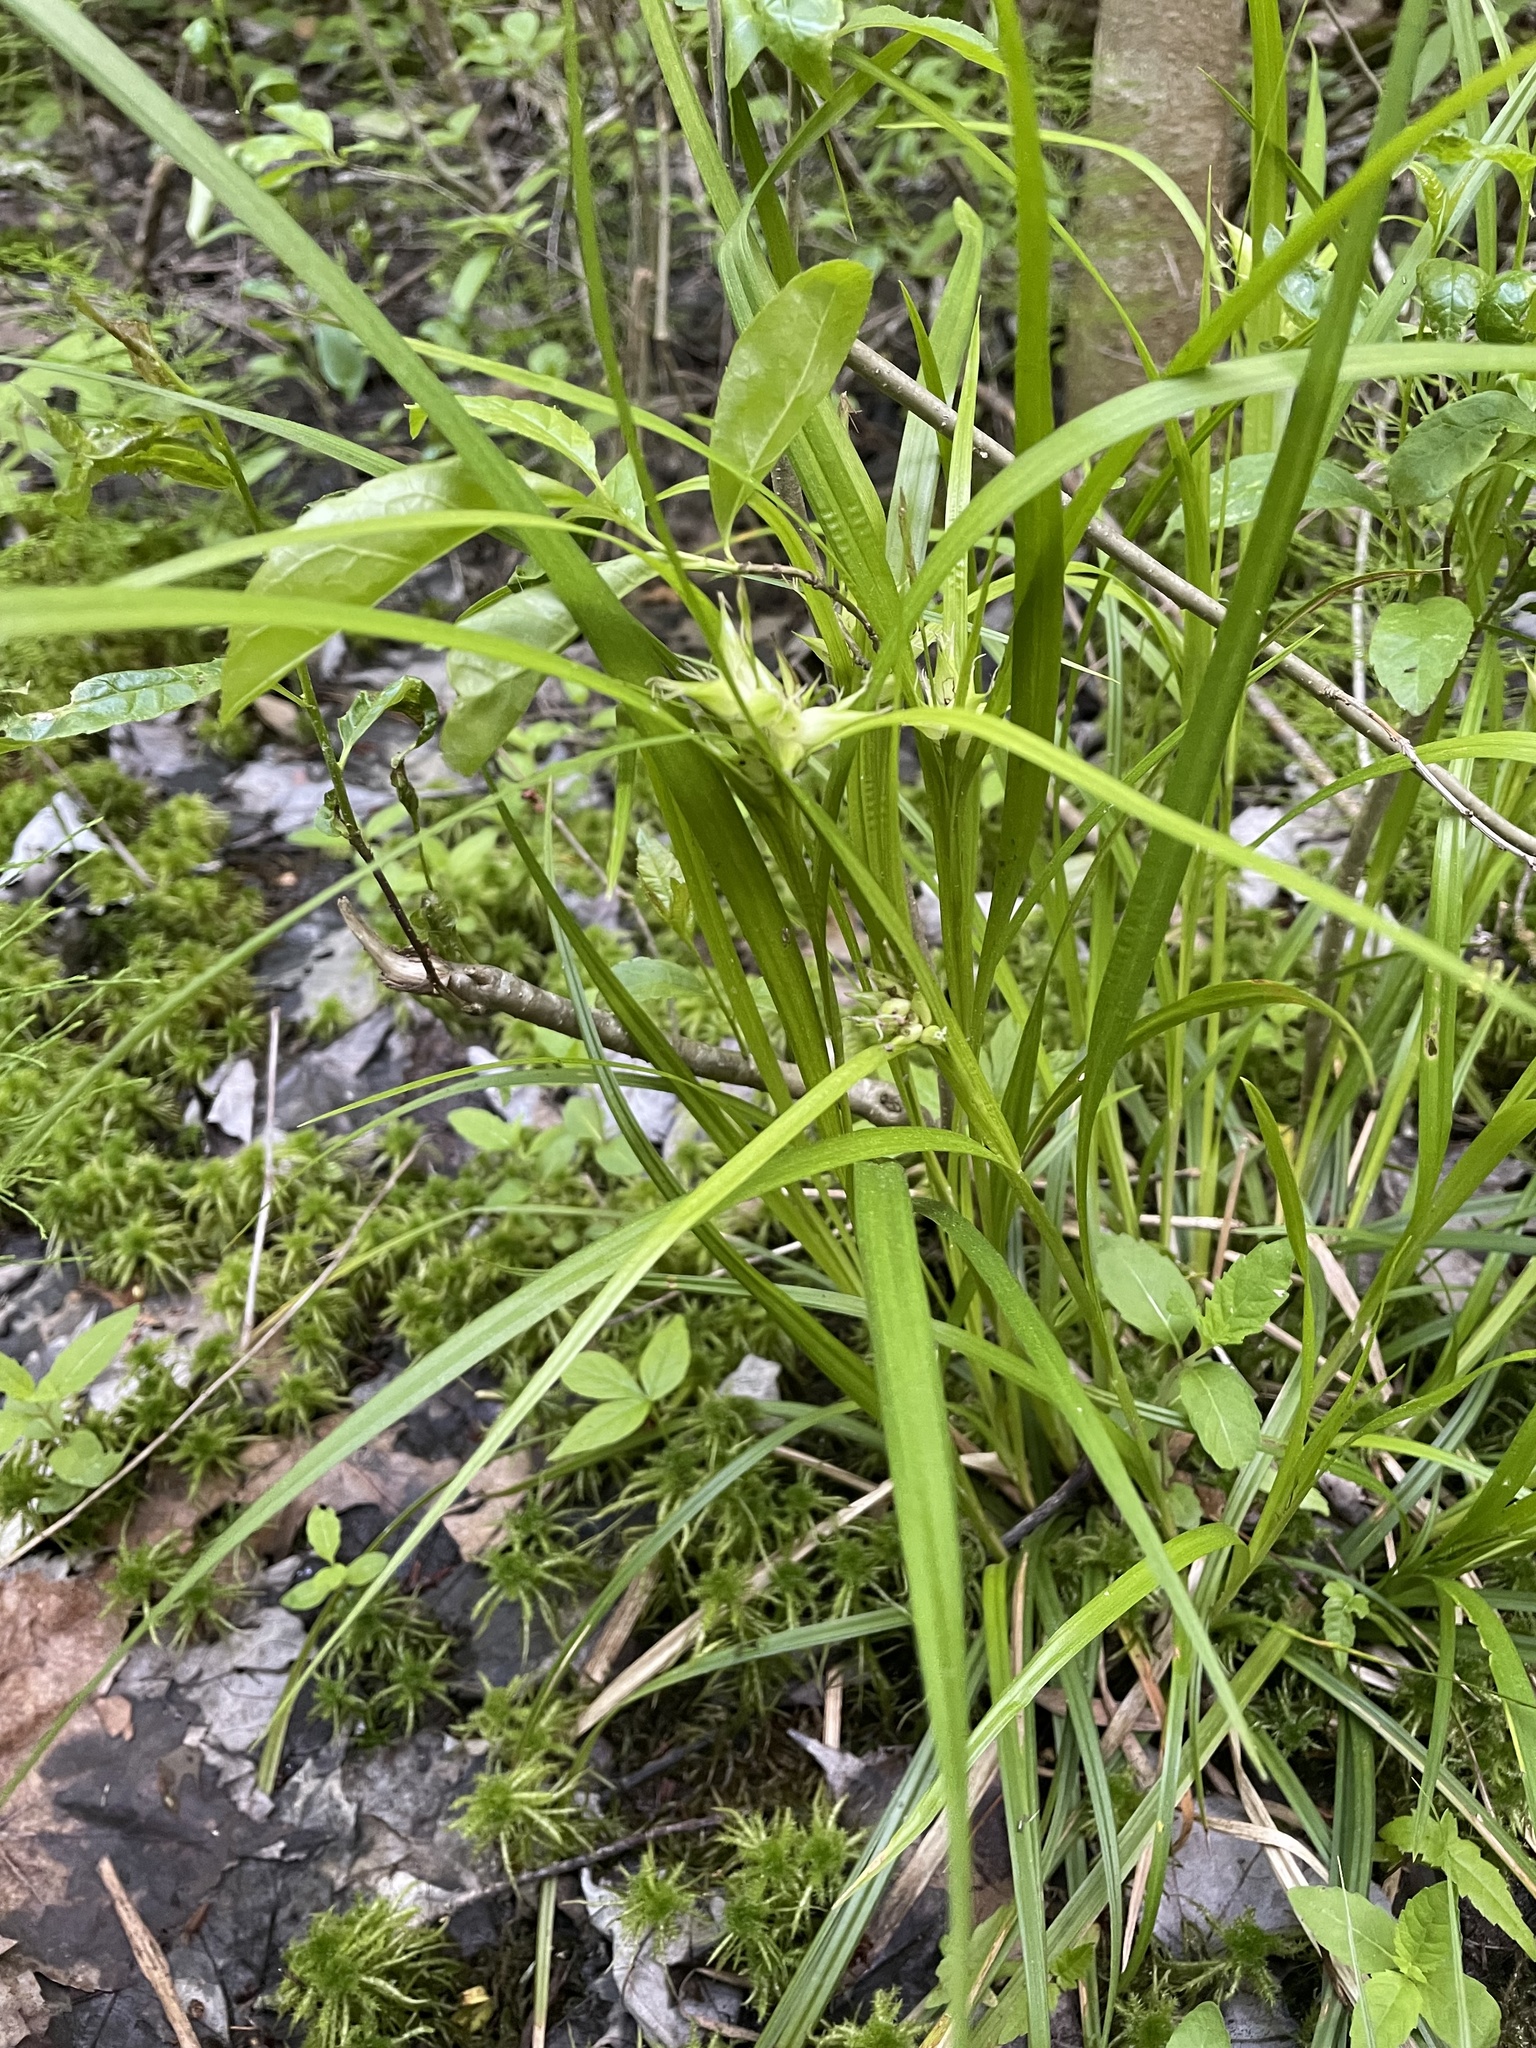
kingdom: Plantae
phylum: Tracheophyta
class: Liliopsida
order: Poales
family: Cyperaceae
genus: Carex
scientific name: Carex intumescens
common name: Greater bladder sedge
